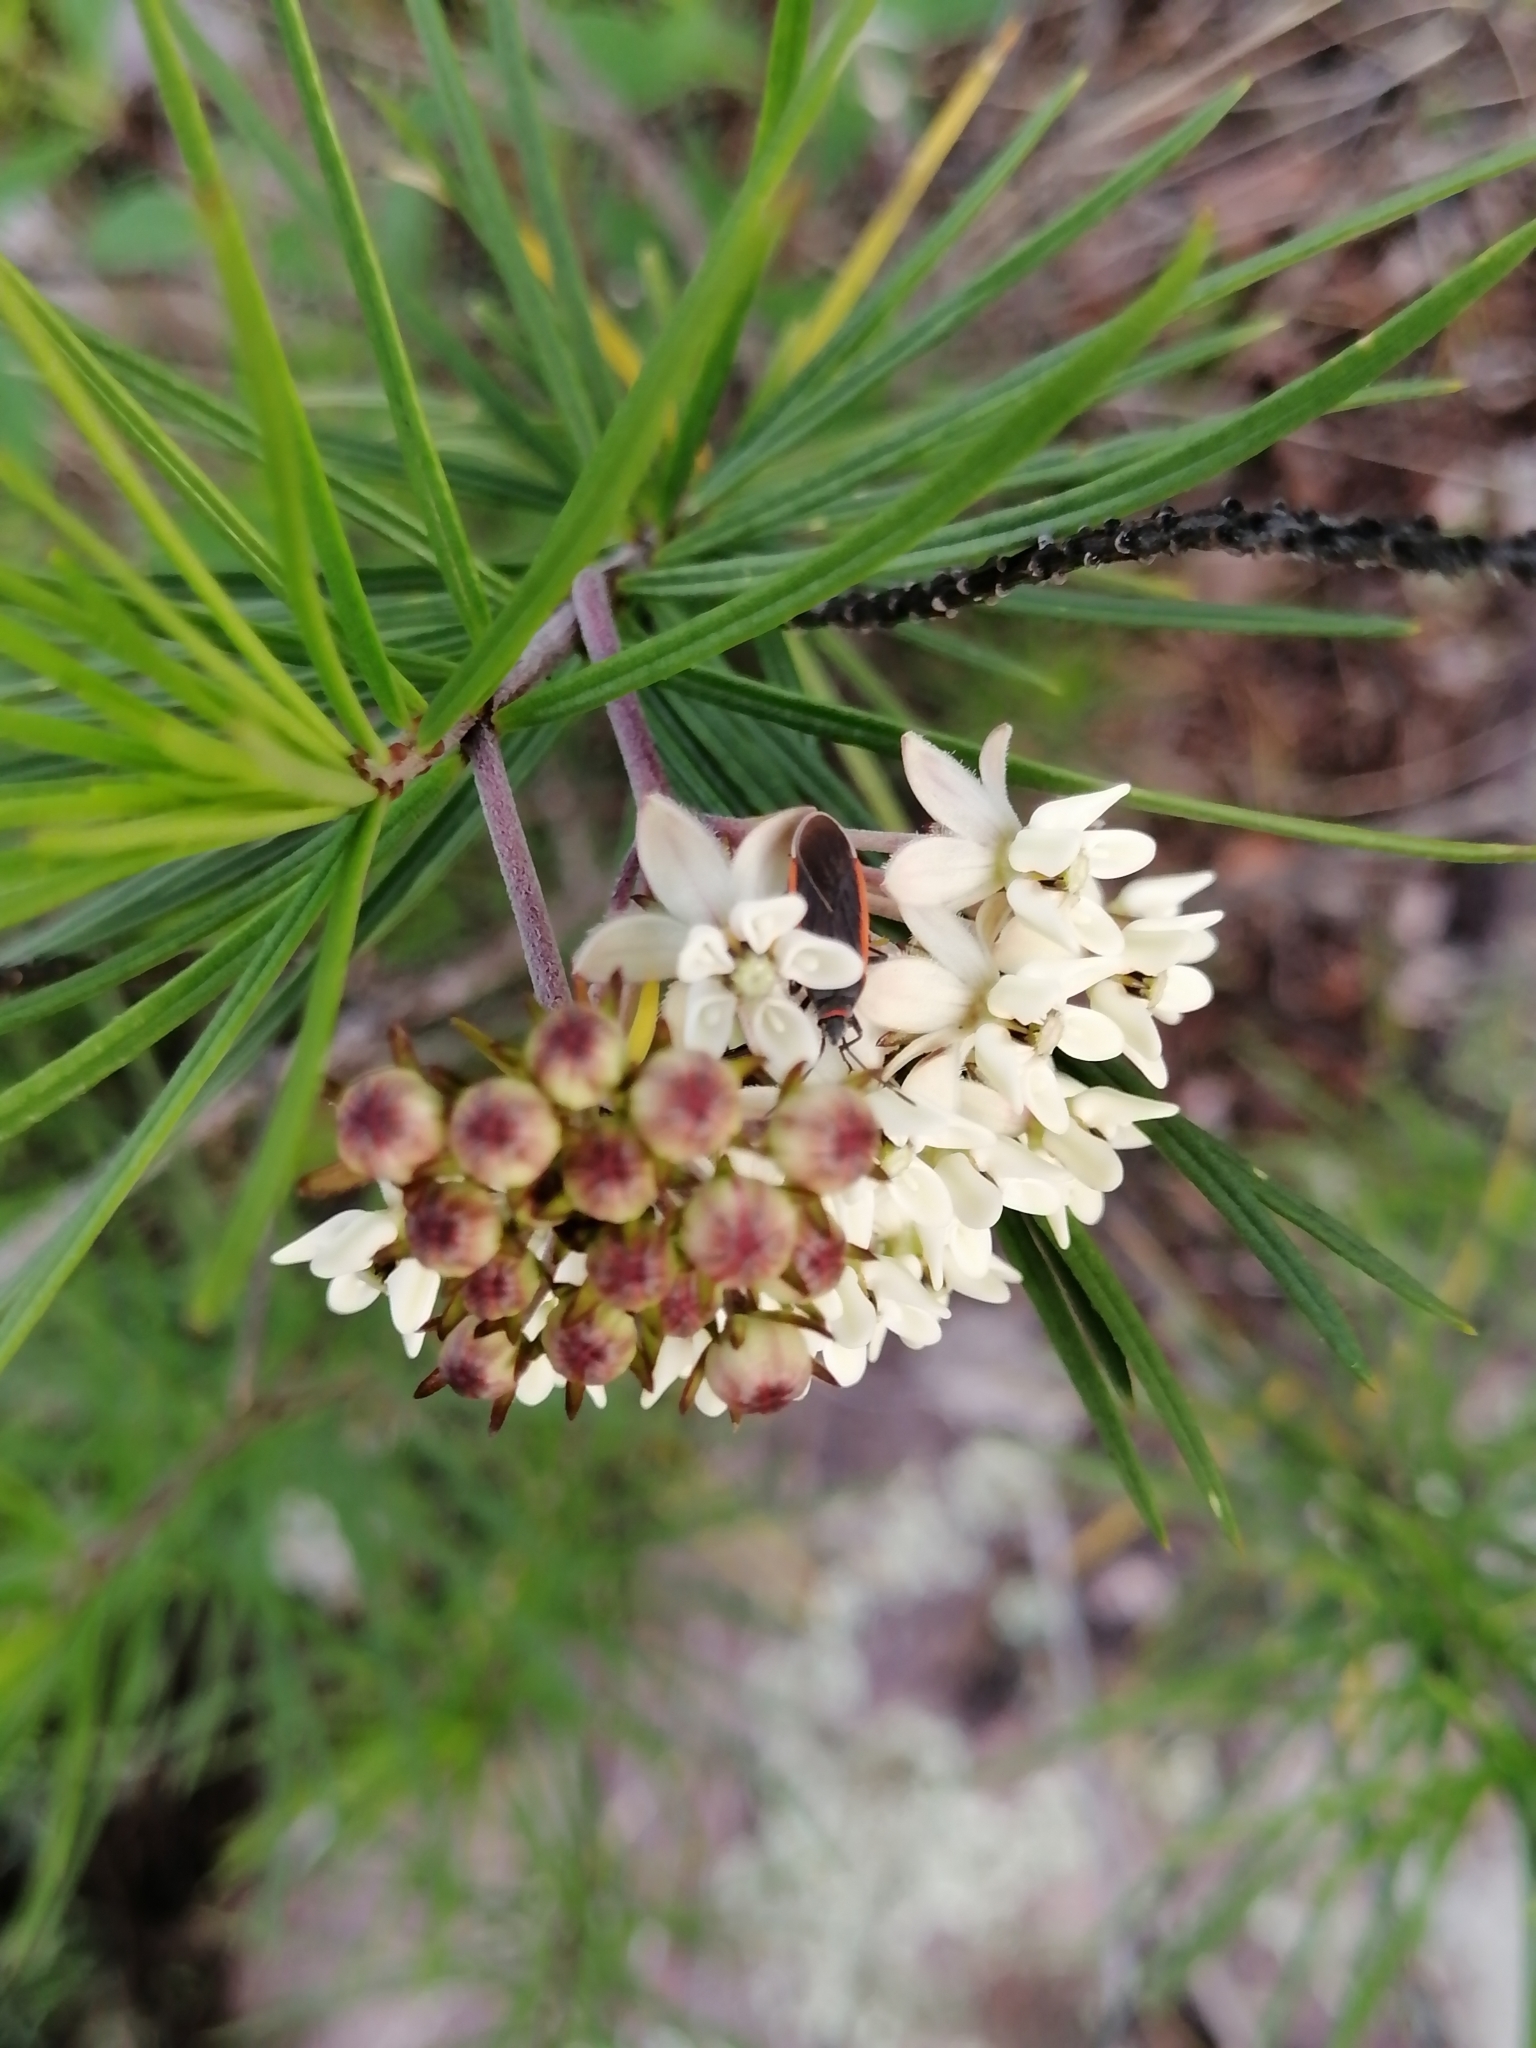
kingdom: Plantae
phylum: Tracheophyta
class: Magnoliopsida
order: Gentianales
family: Apocynaceae
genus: Asclepias
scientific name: Asclepias linaria
